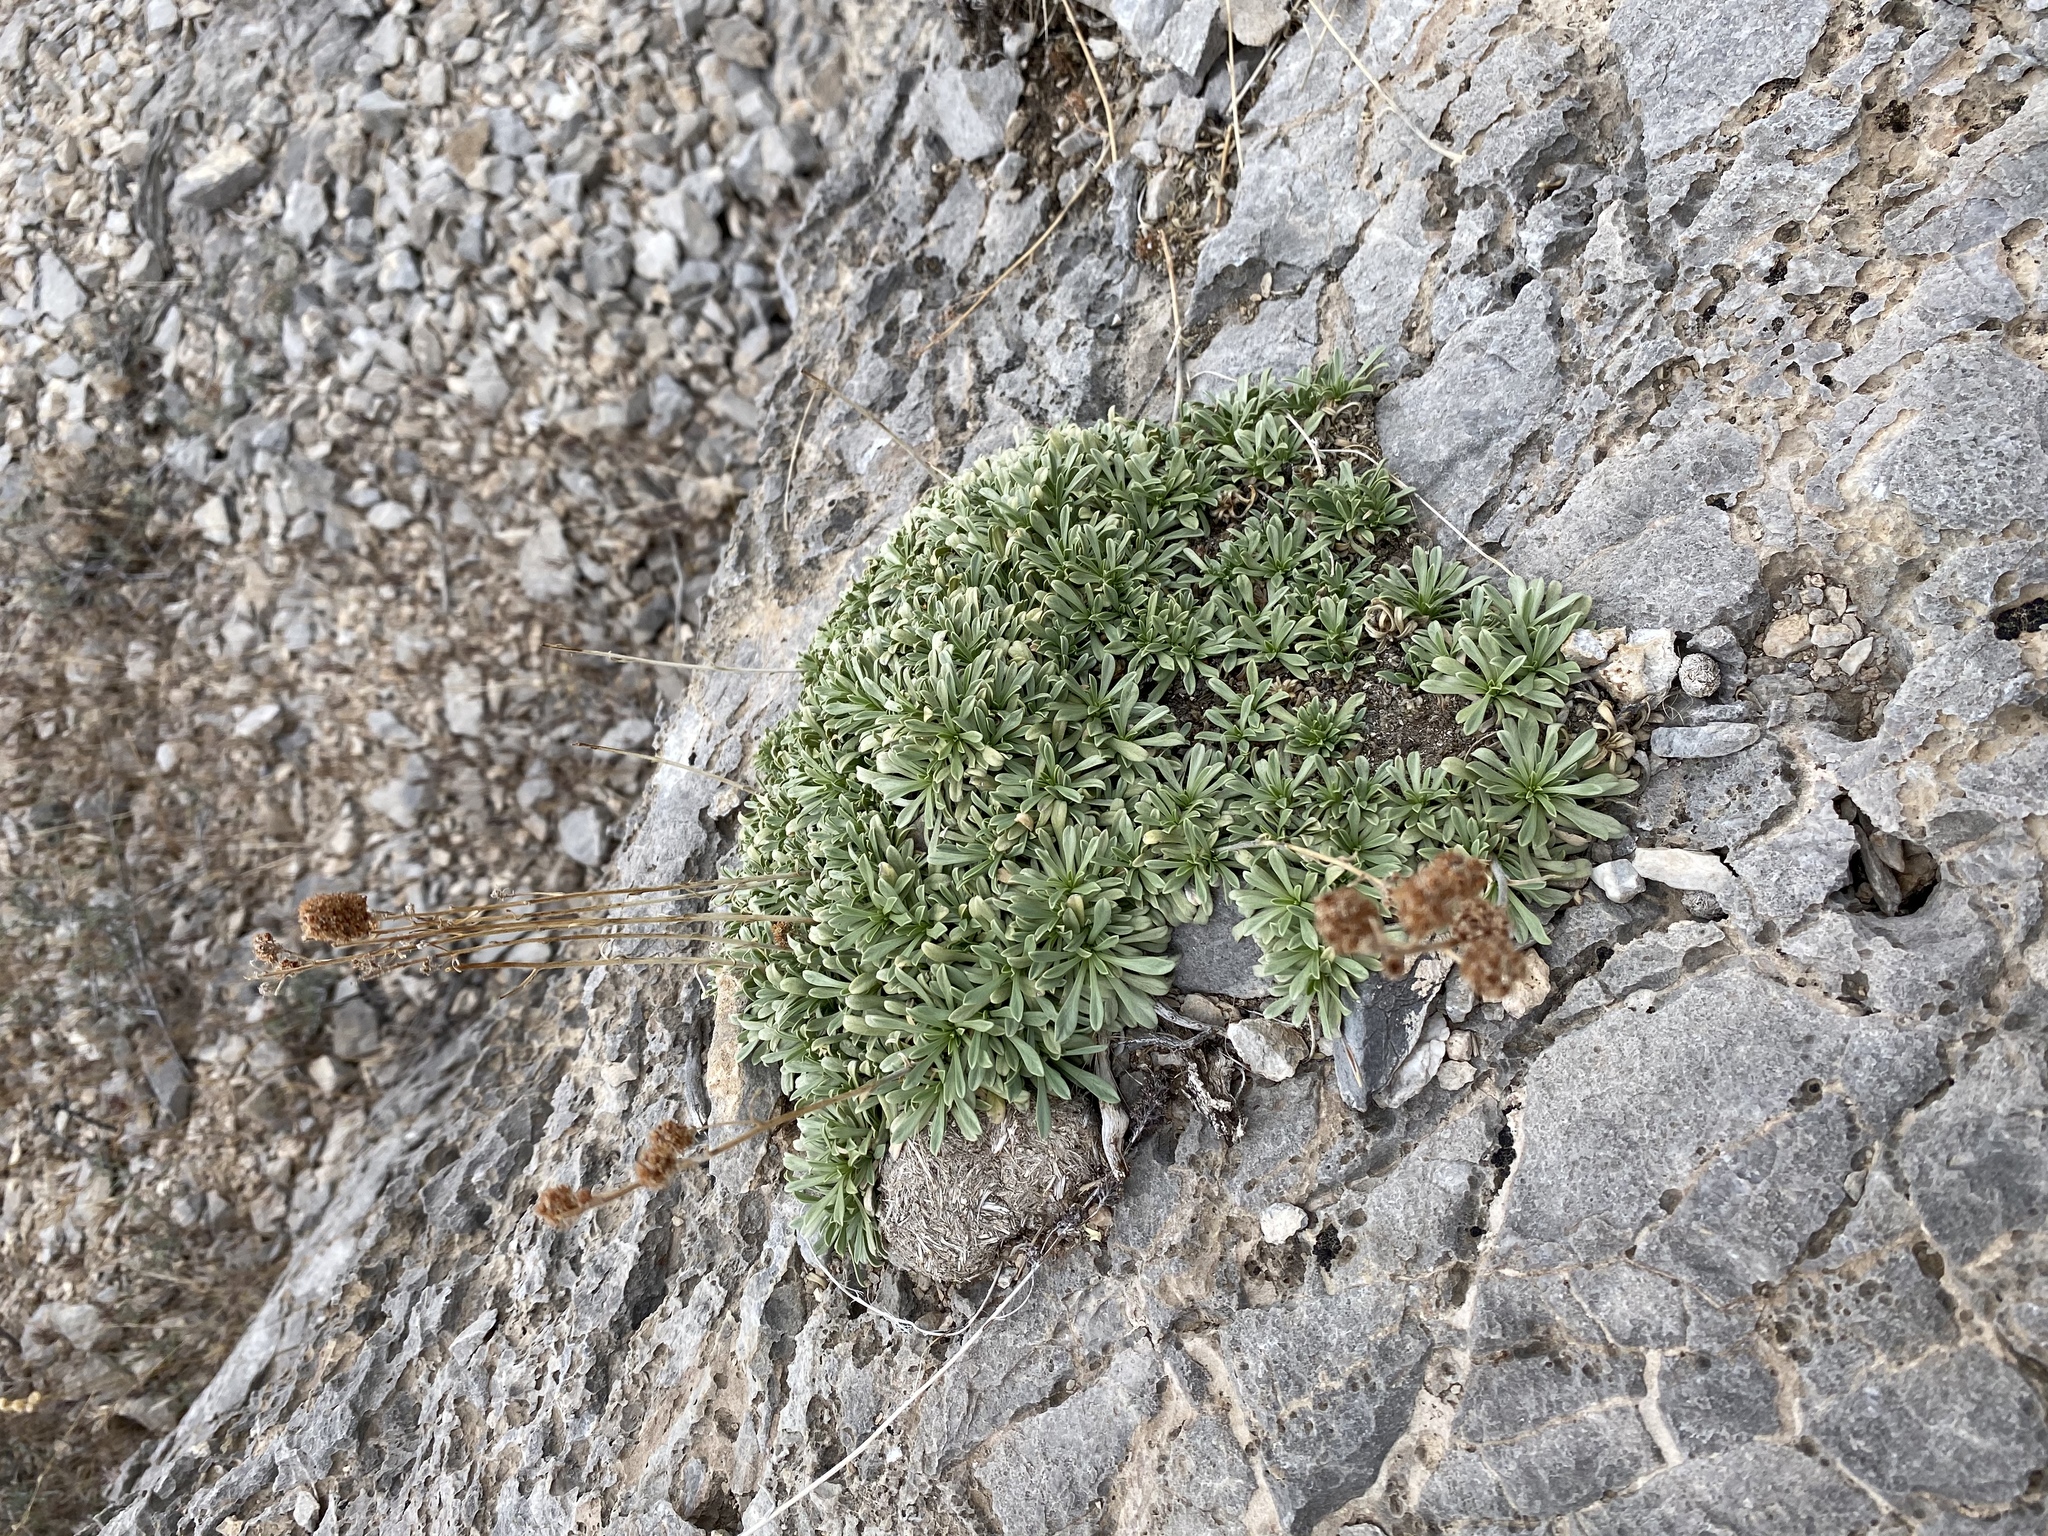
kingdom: Plantae
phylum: Tracheophyta
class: Magnoliopsida
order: Rosales
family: Rosaceae
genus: Petrophytum
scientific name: Petrophytum caespitosum
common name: Mat rockspirea
